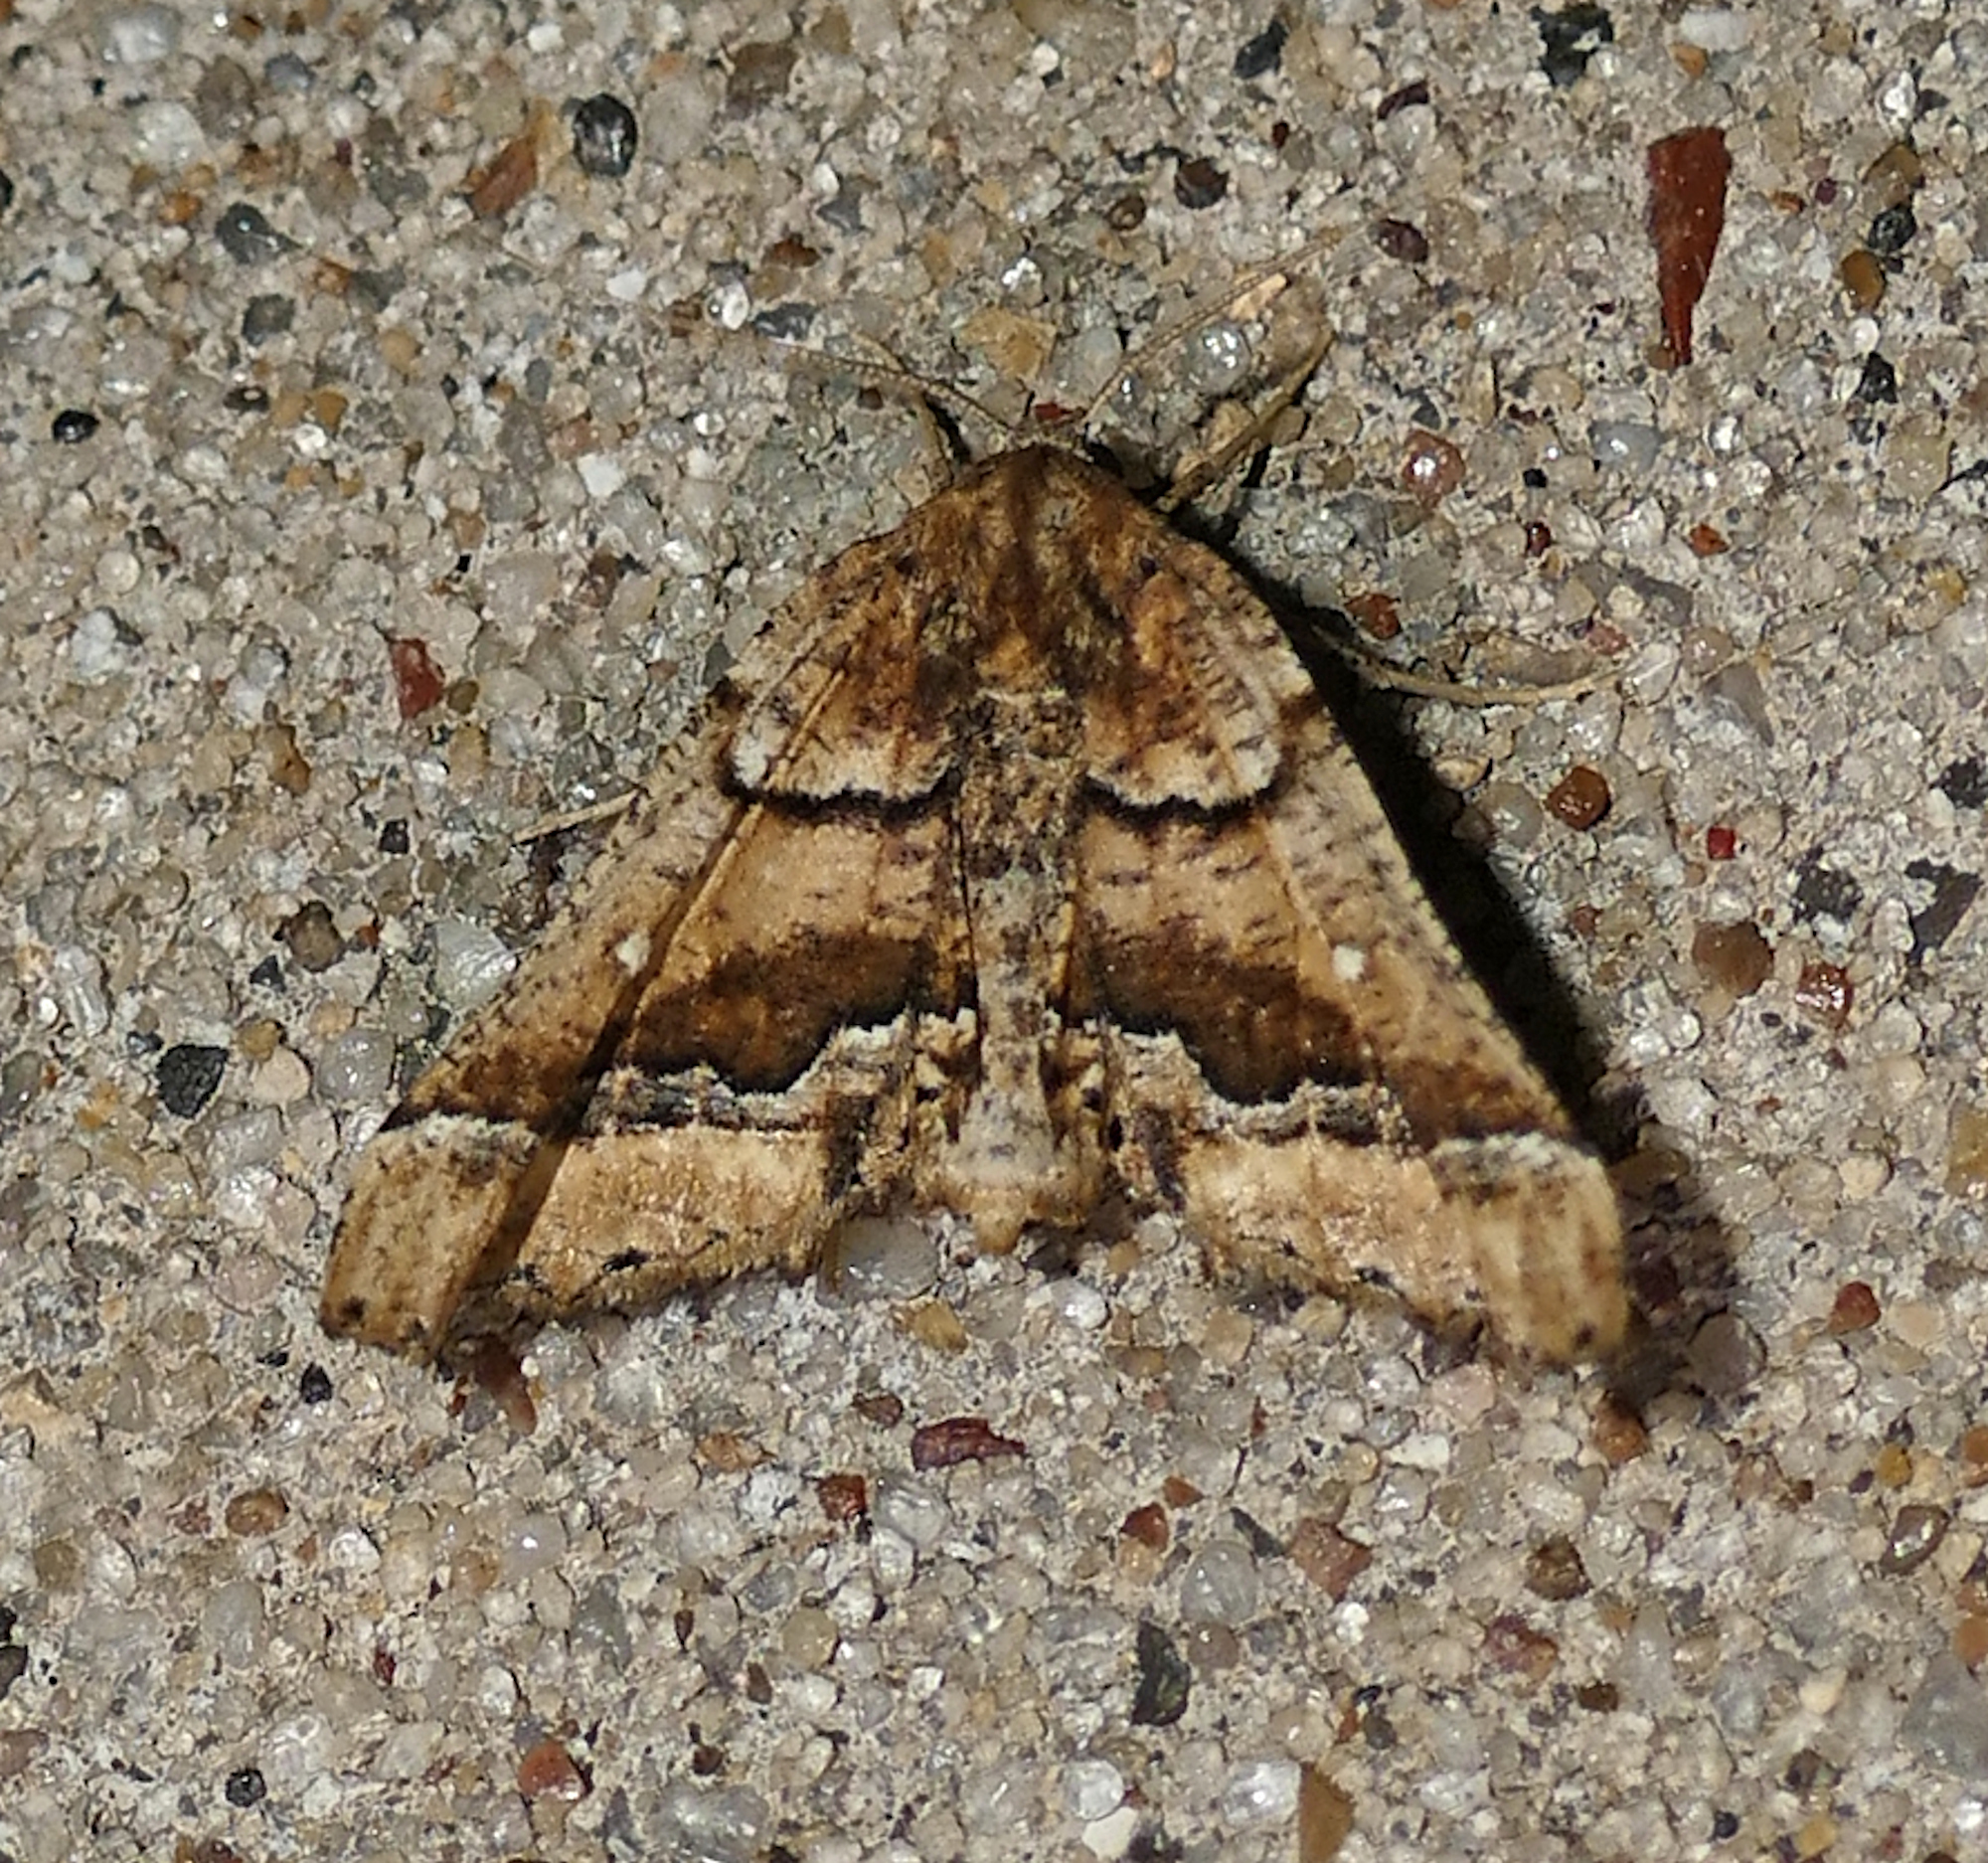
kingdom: Animalia
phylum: Arthropoda
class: Insecta
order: Lepidoptera
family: Geometridae
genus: Pero
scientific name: Pero meskaria
